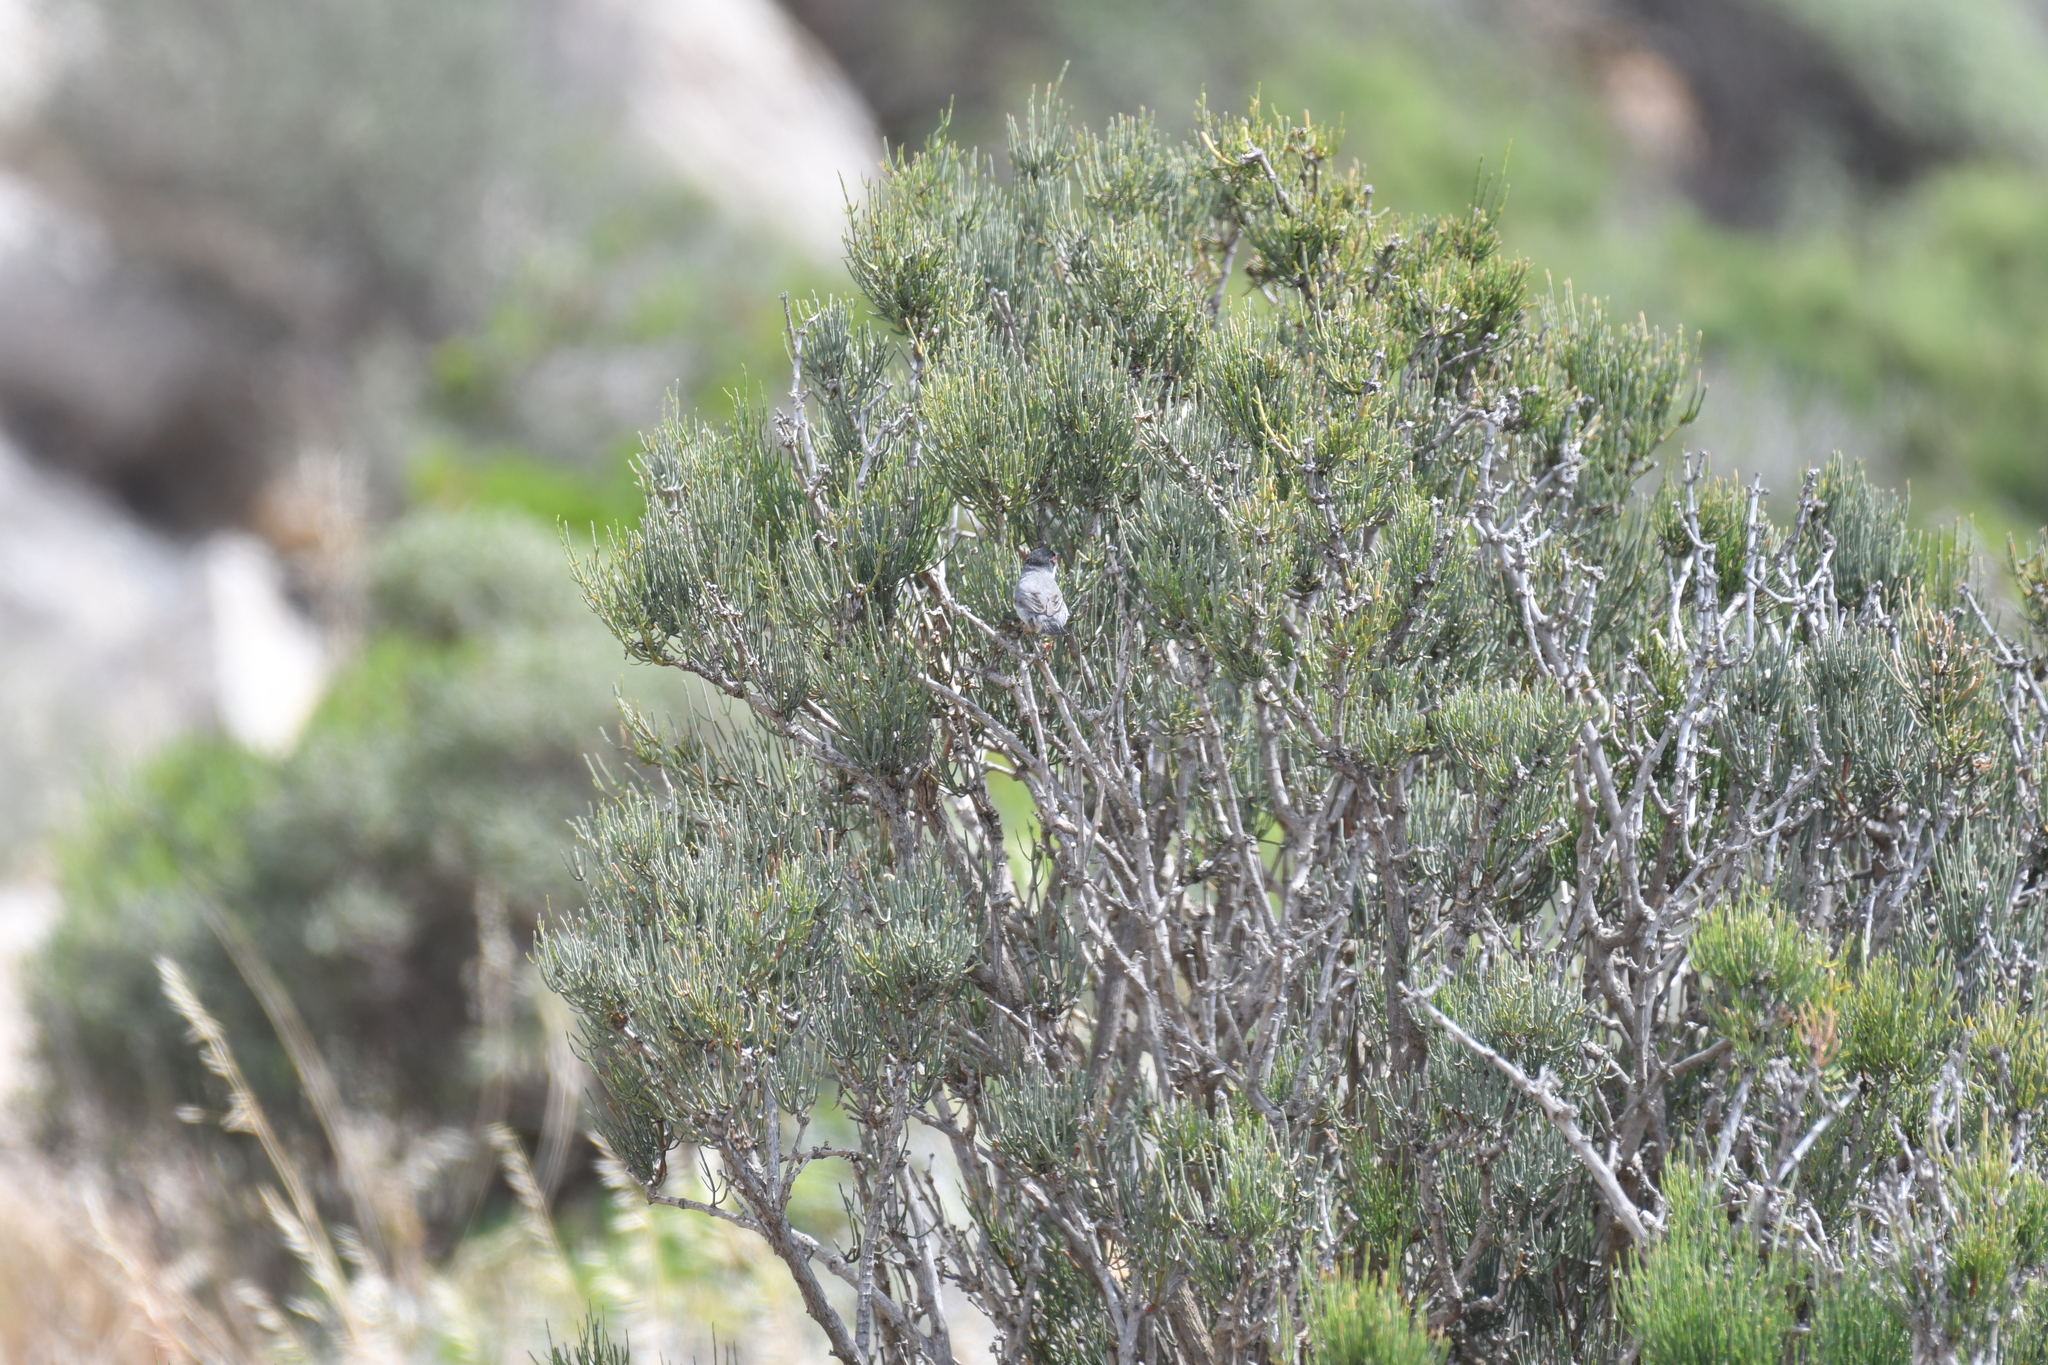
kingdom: Animalia
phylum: Chordata
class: Aves
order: Passeriformes
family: Sylviidae
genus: Curruca
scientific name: Curruca melanocephala
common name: Sardinian warbler
